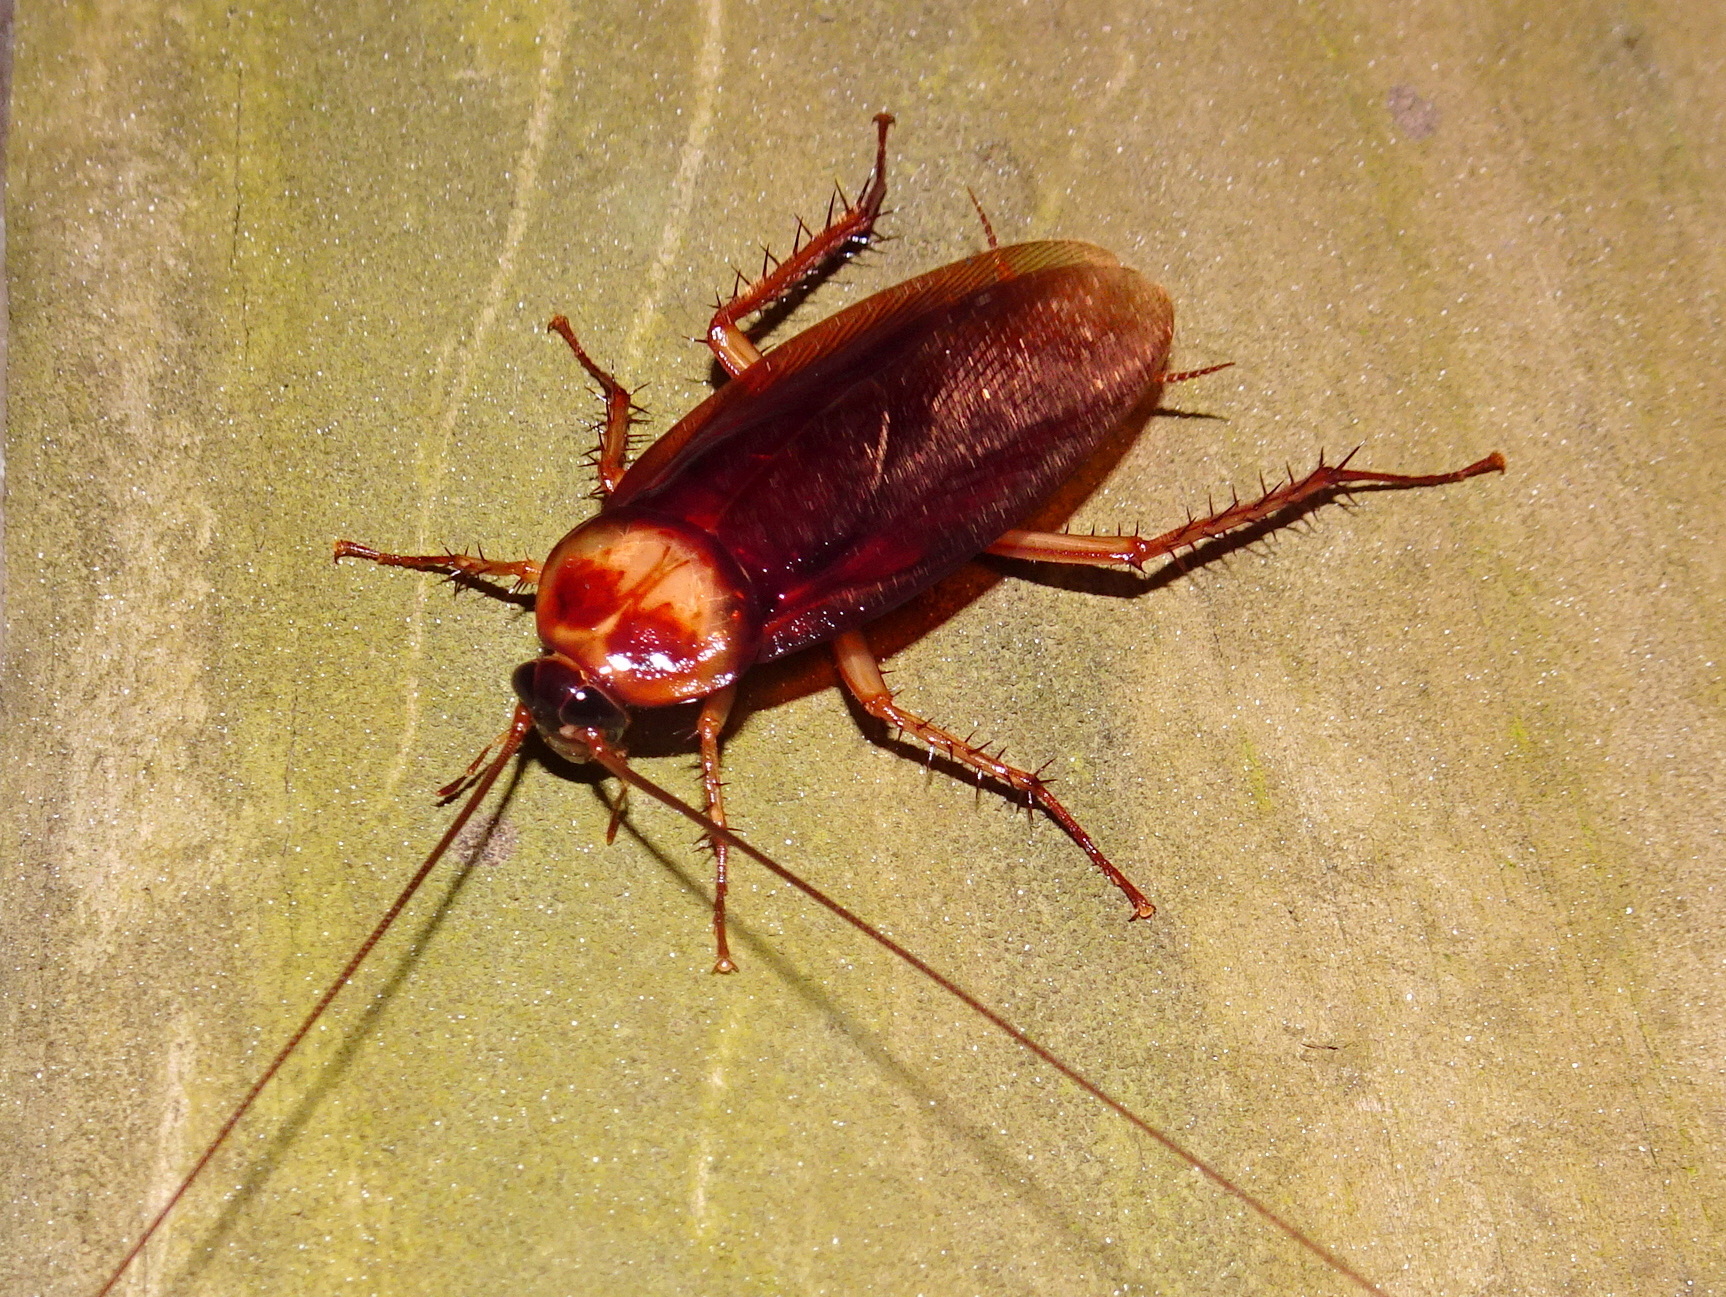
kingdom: Animalia
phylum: Arthropoda
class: Insecta
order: Blattodea
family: Blattidae
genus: Periplaneta
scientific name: Periplaneta americana
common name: American cockroach
